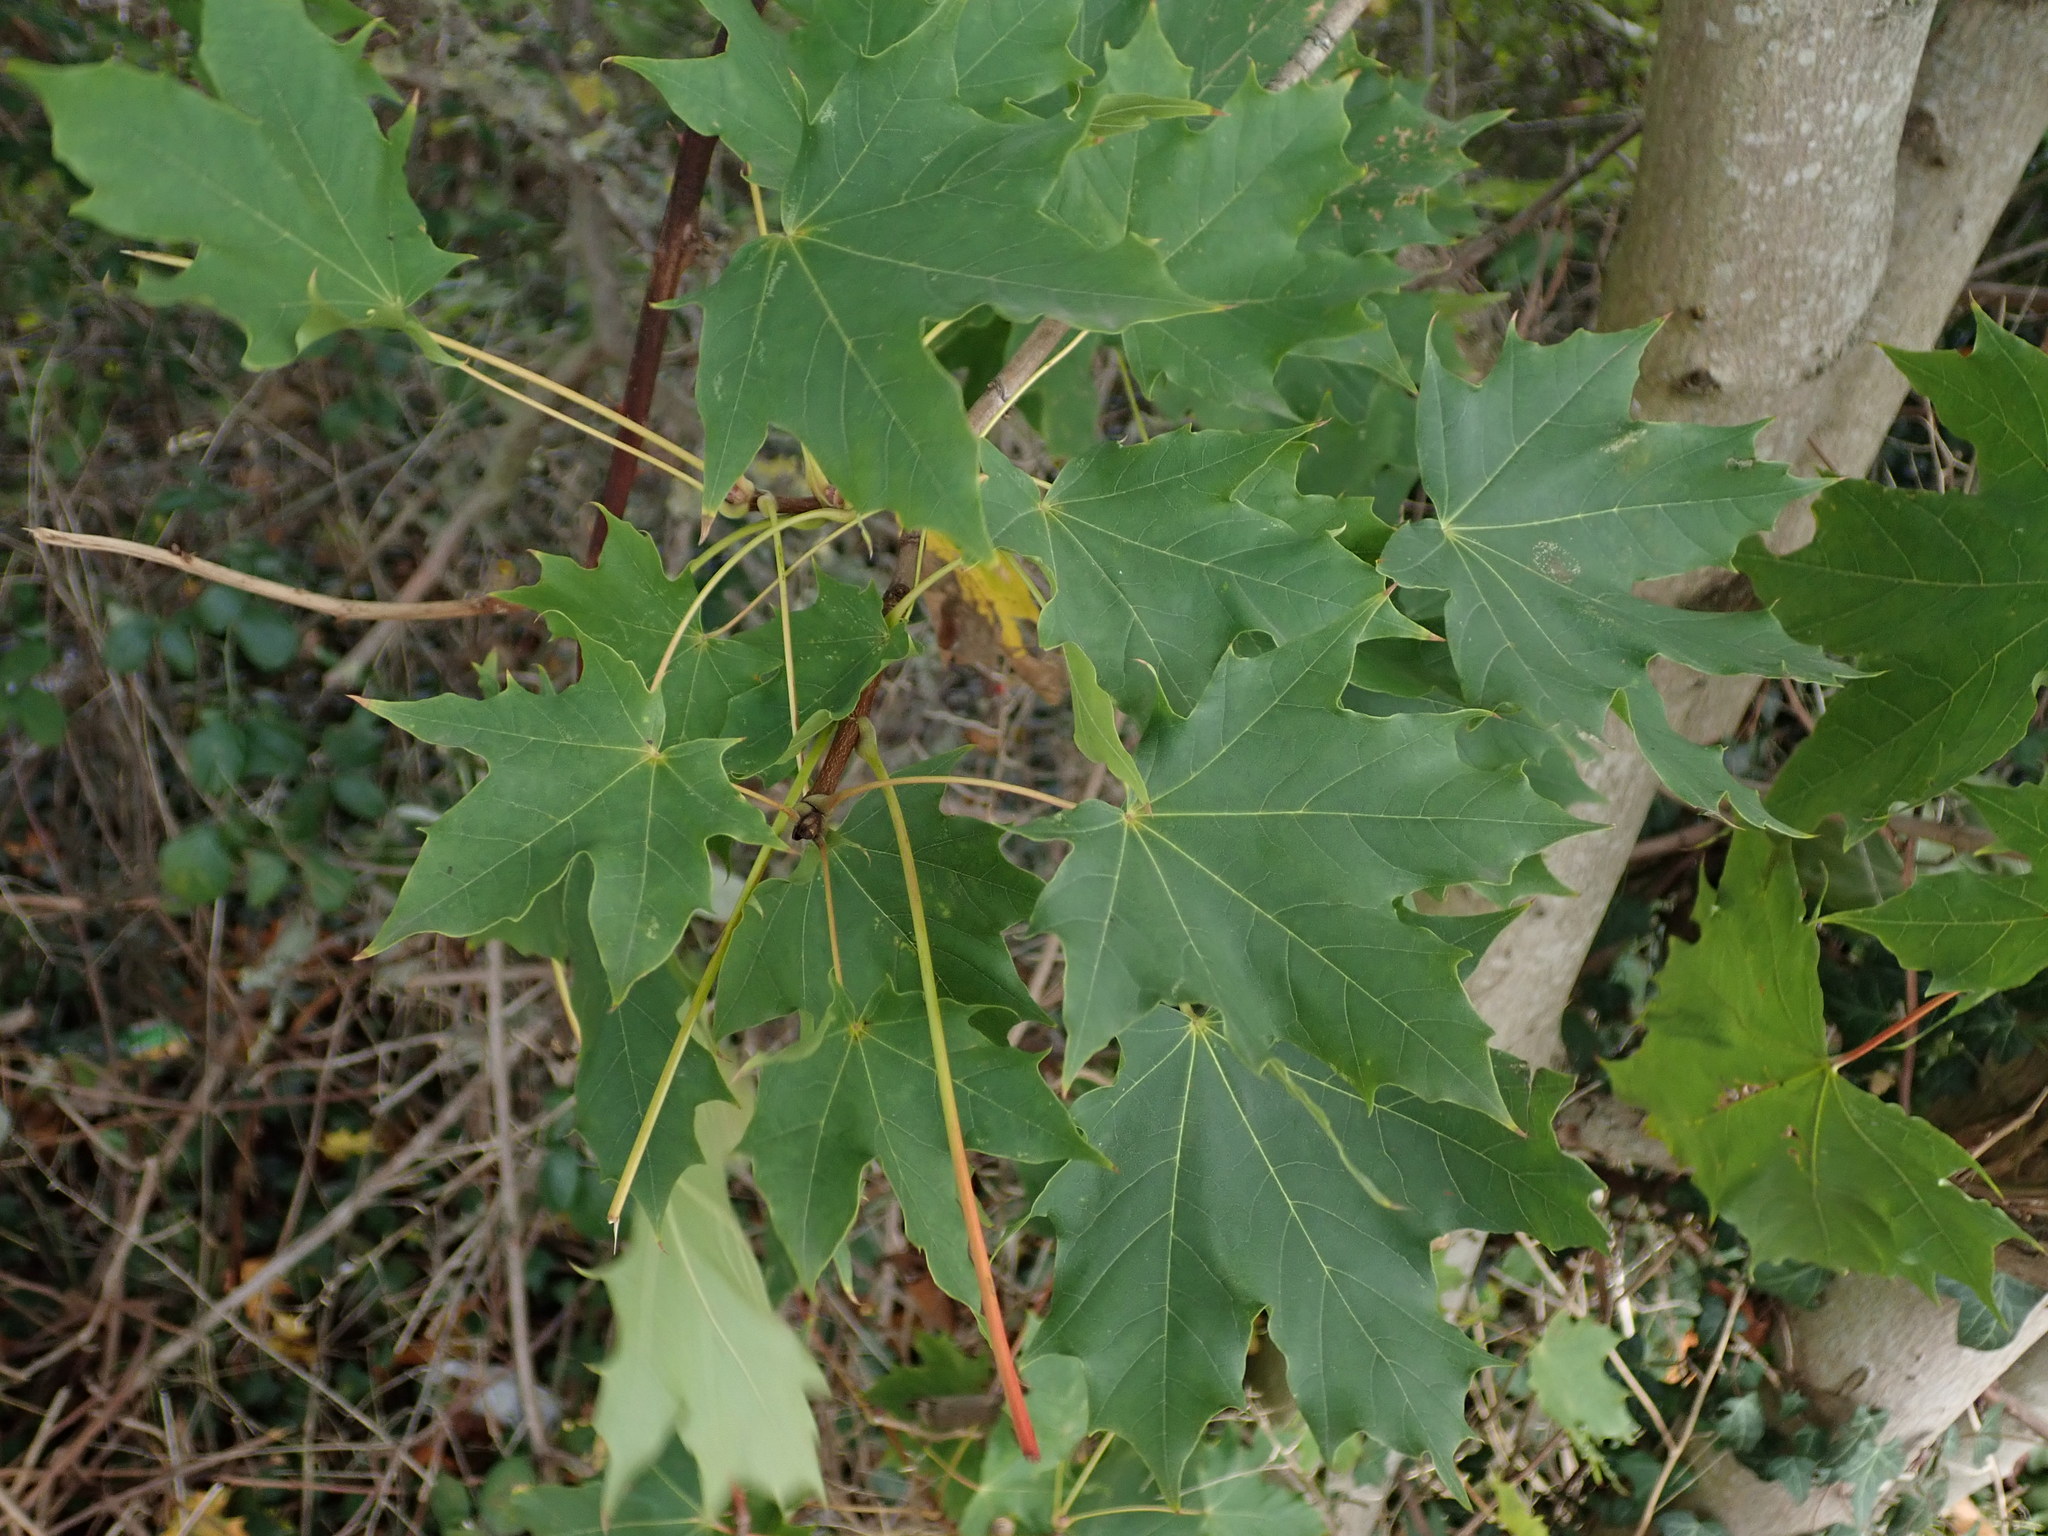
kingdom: Plantae
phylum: Tracheophyta
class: Magnoliopsida
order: Sapindales
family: Sapindaceae
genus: Acer
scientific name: Acer platanoides
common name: Norway maple
